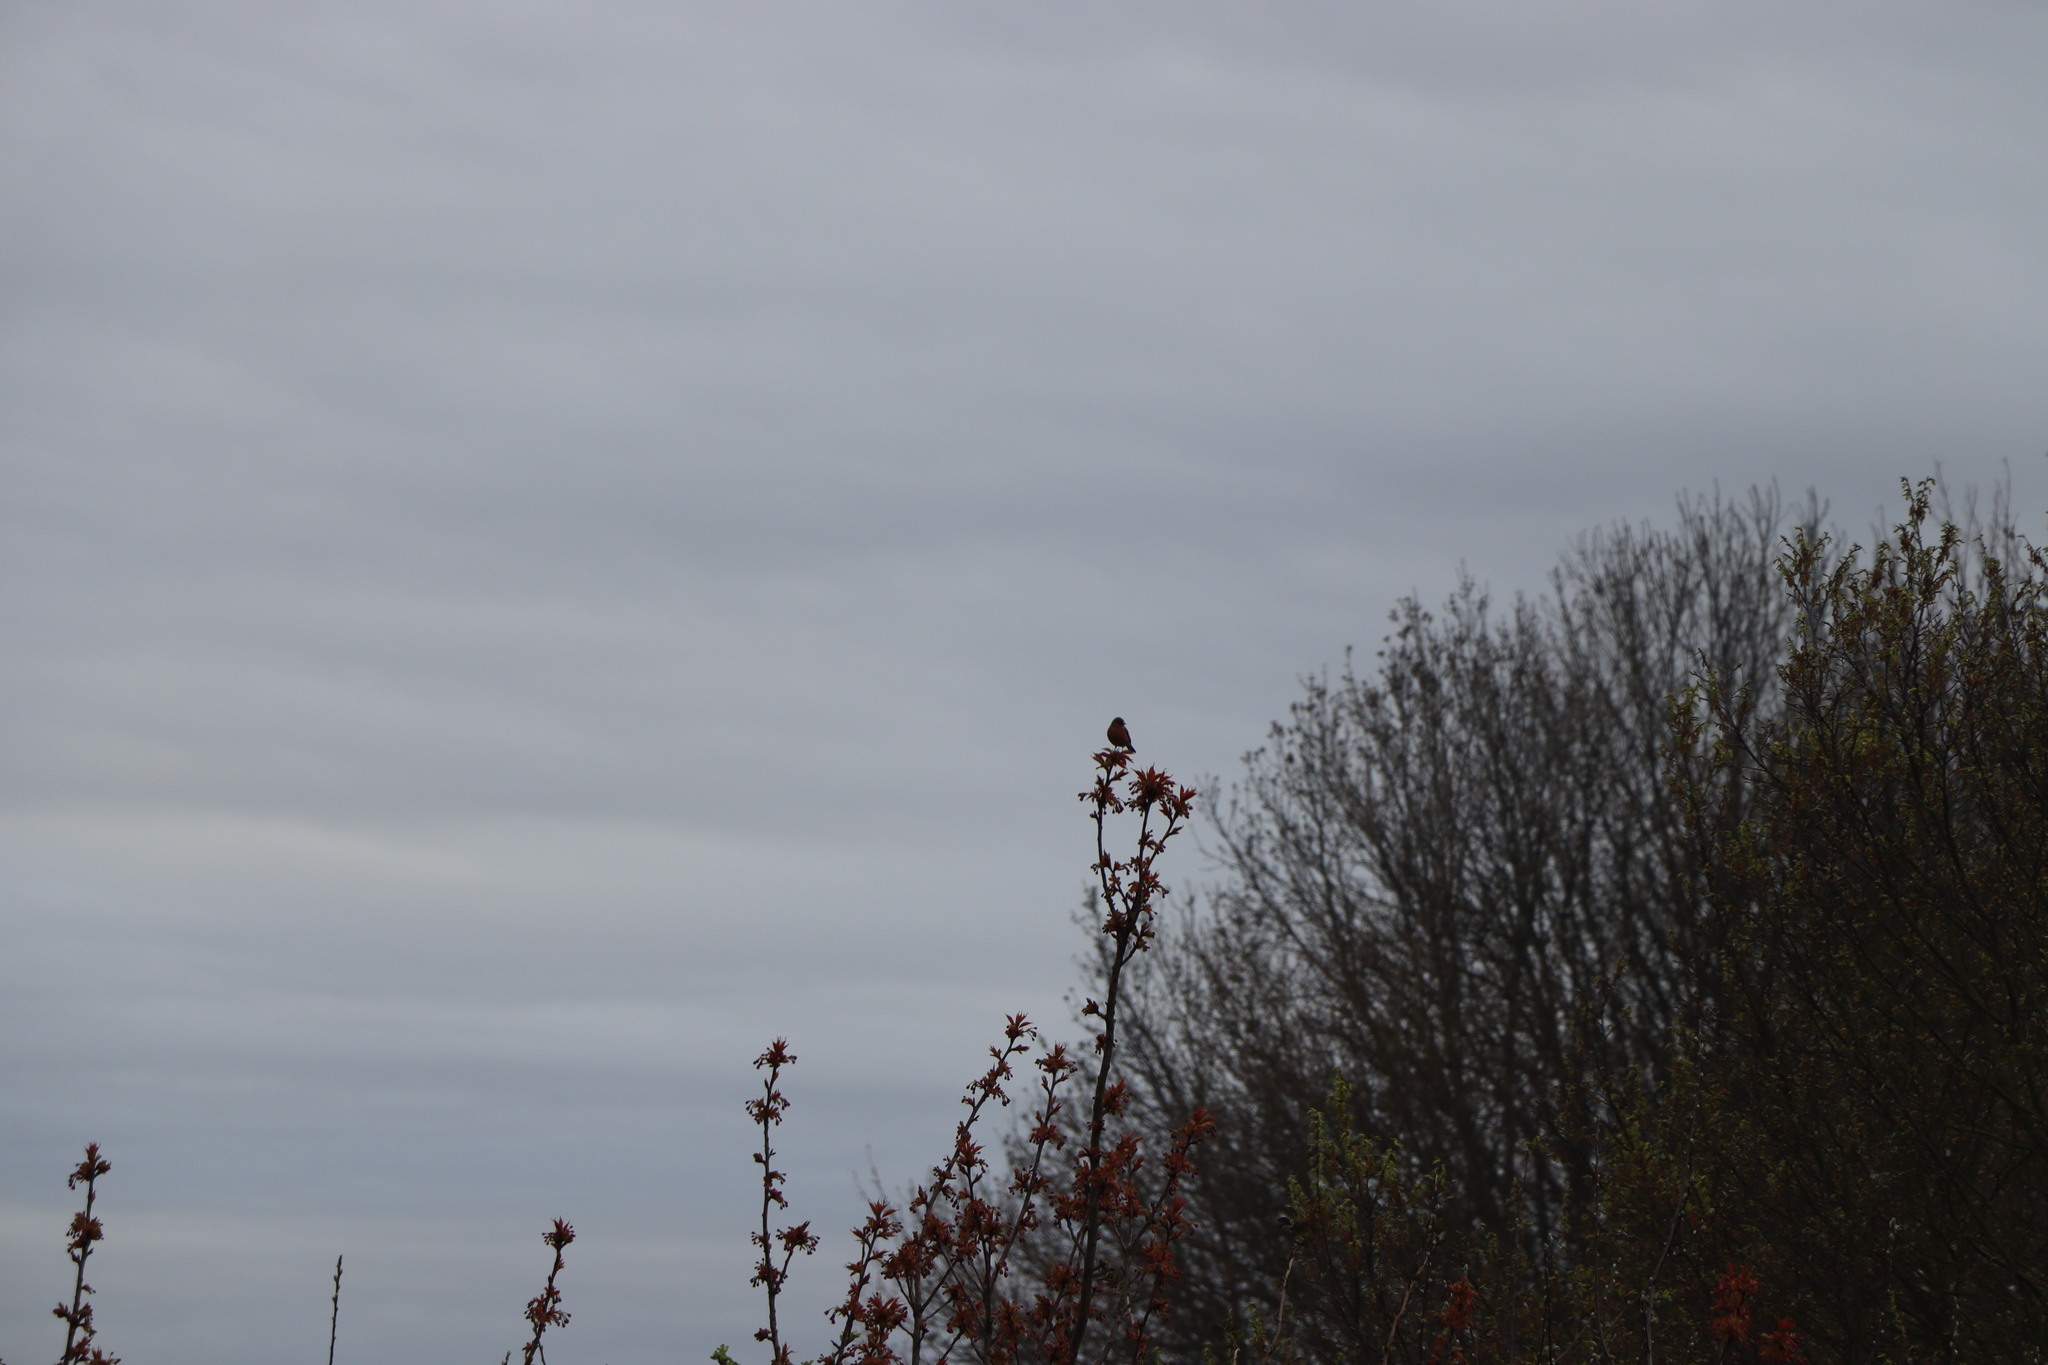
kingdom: Animalia
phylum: Chordata
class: Aves
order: Passeriformes
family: Fringillidae
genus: Fringilla
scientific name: Fringilla coelebs
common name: Common chaffinch
